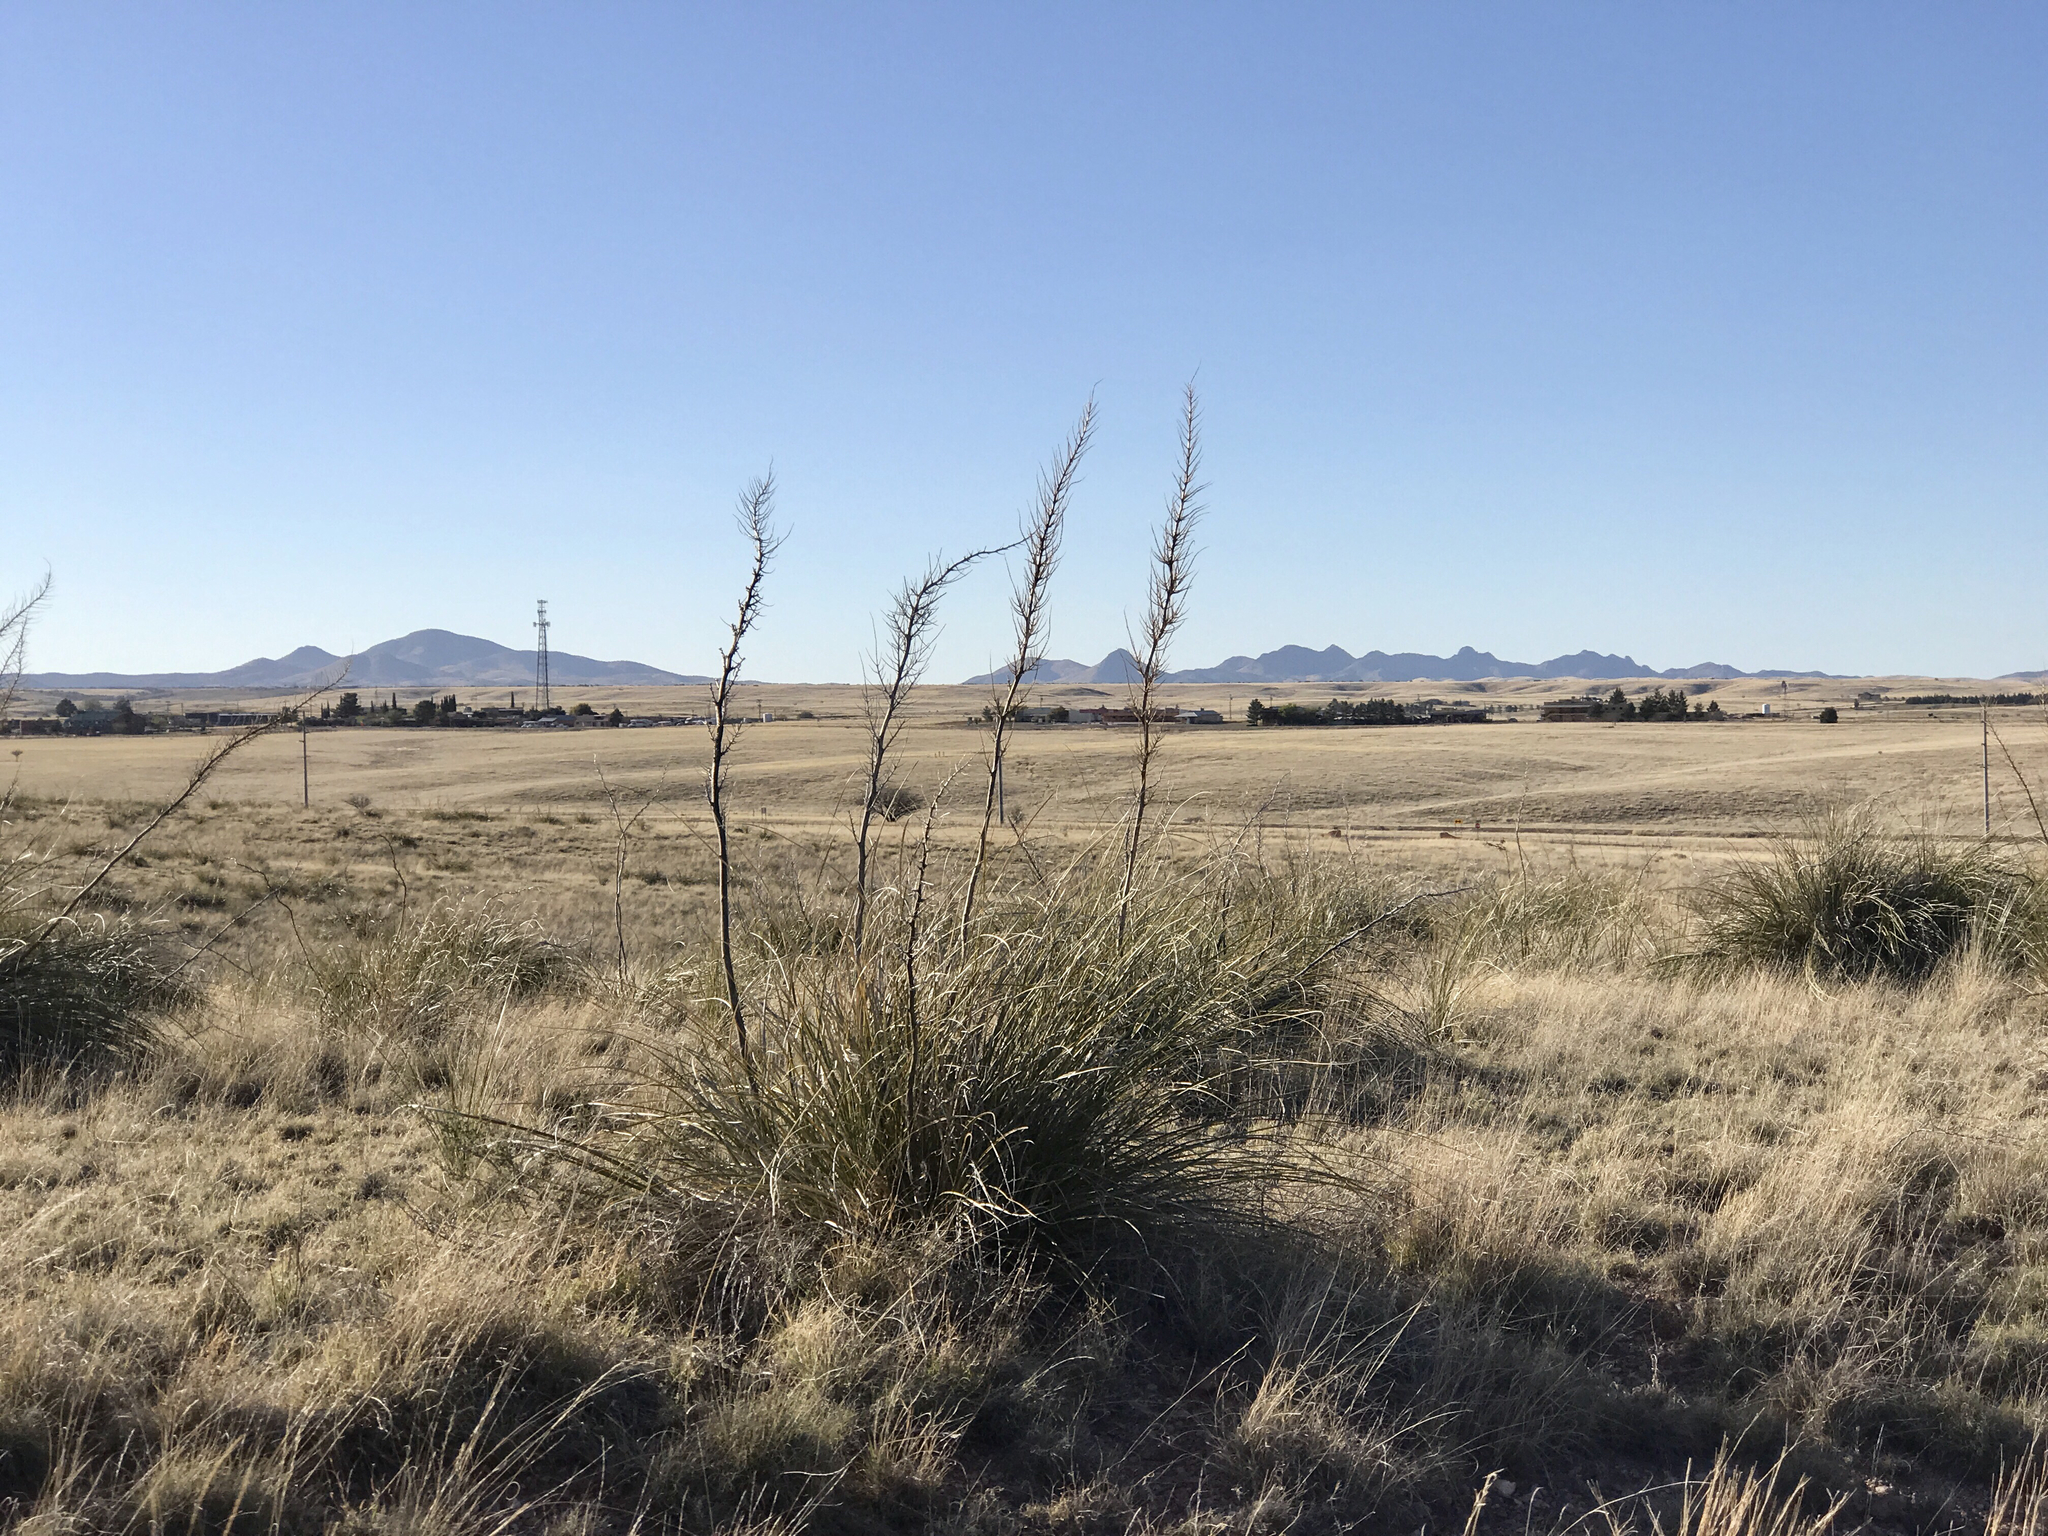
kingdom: Plantae
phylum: Tracheophyta
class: Liliopsida
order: Asparagales
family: Asparagaceae
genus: Nolina
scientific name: Nolina microcarpa
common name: Bear-grass
